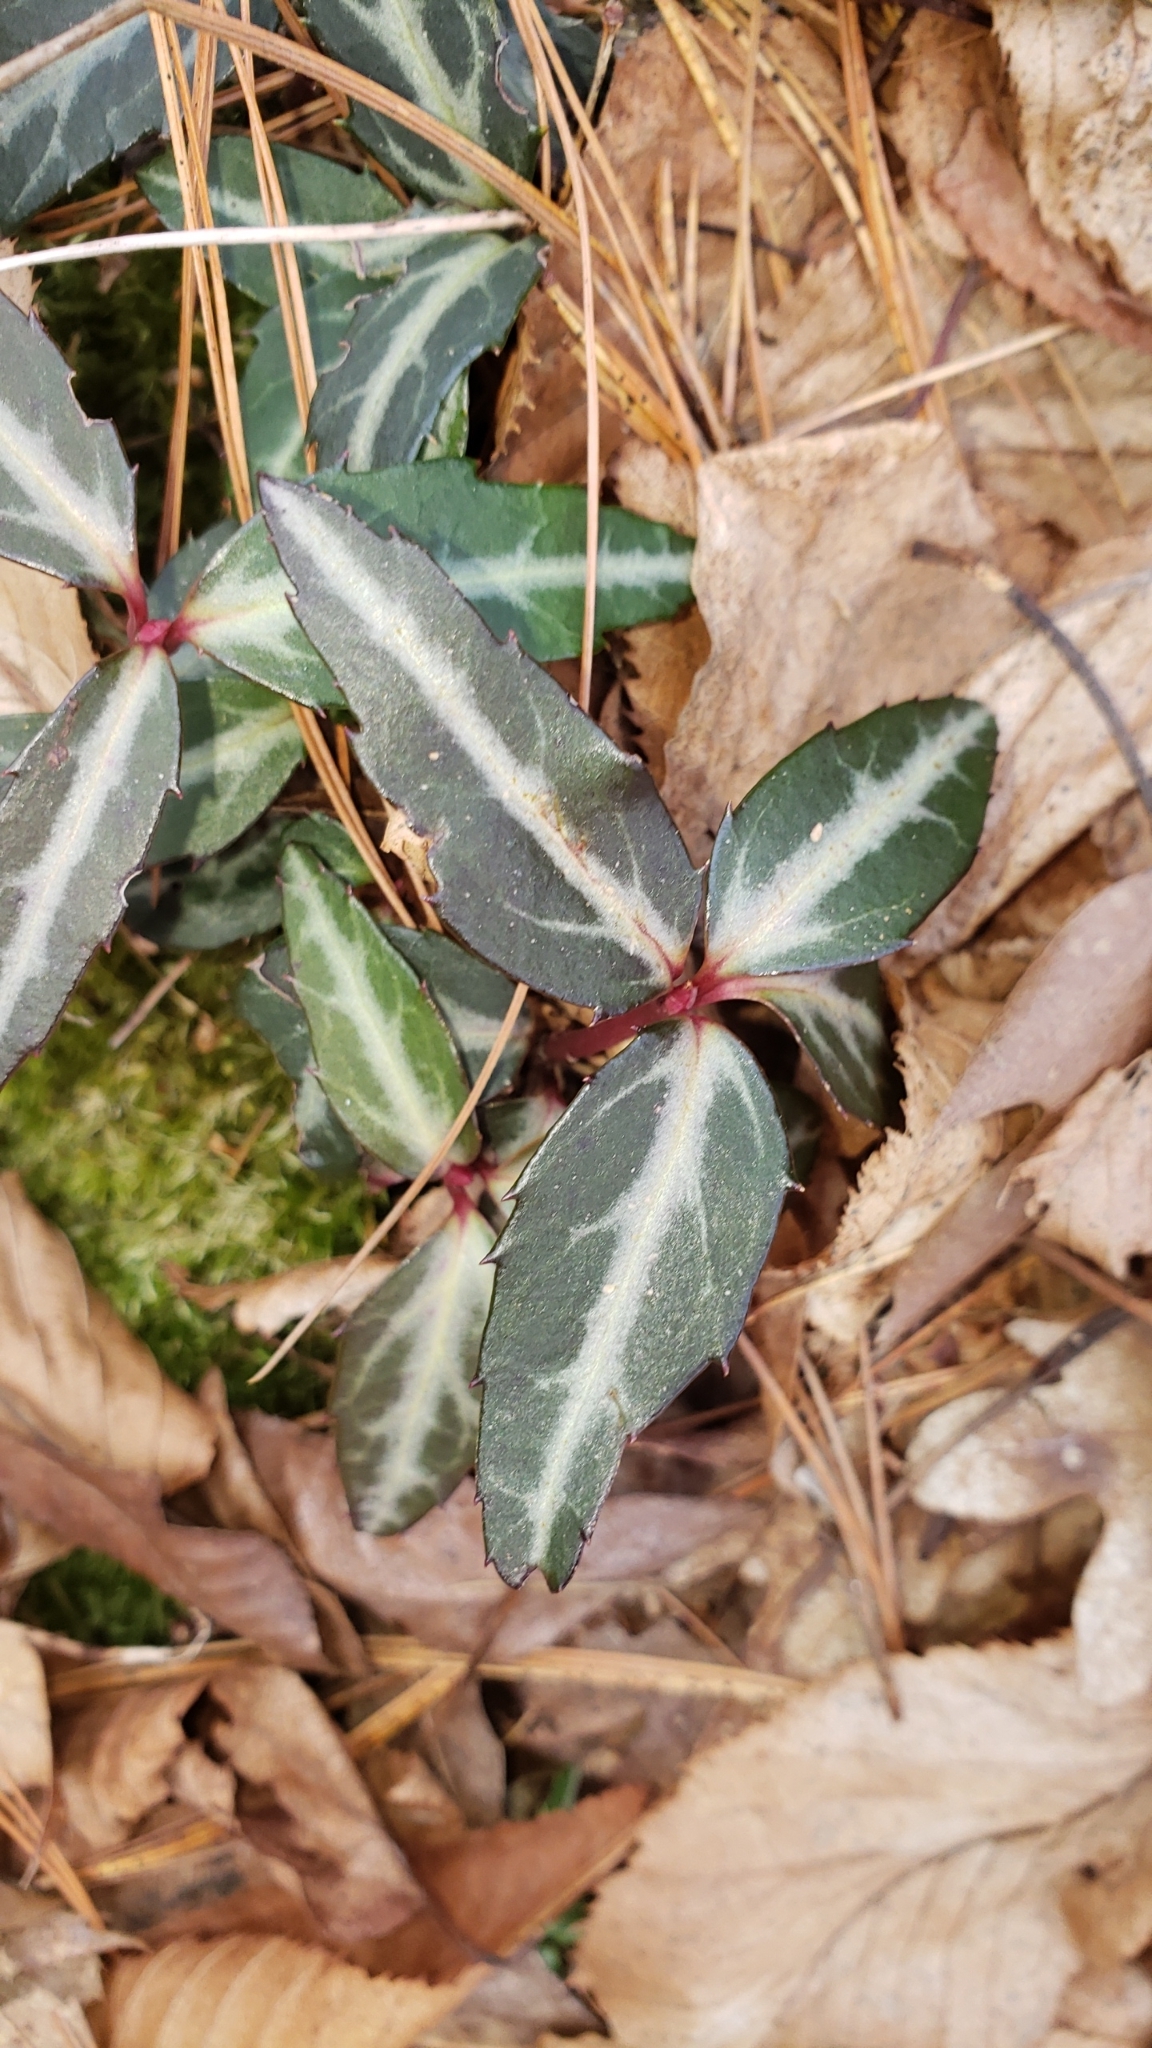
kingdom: Plantae
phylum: Tracheophyta
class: Magnoliopsida
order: Ericales
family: Ericaceae
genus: Chimaphila
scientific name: Chimaphila maculata
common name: Spotted pipsissewa
